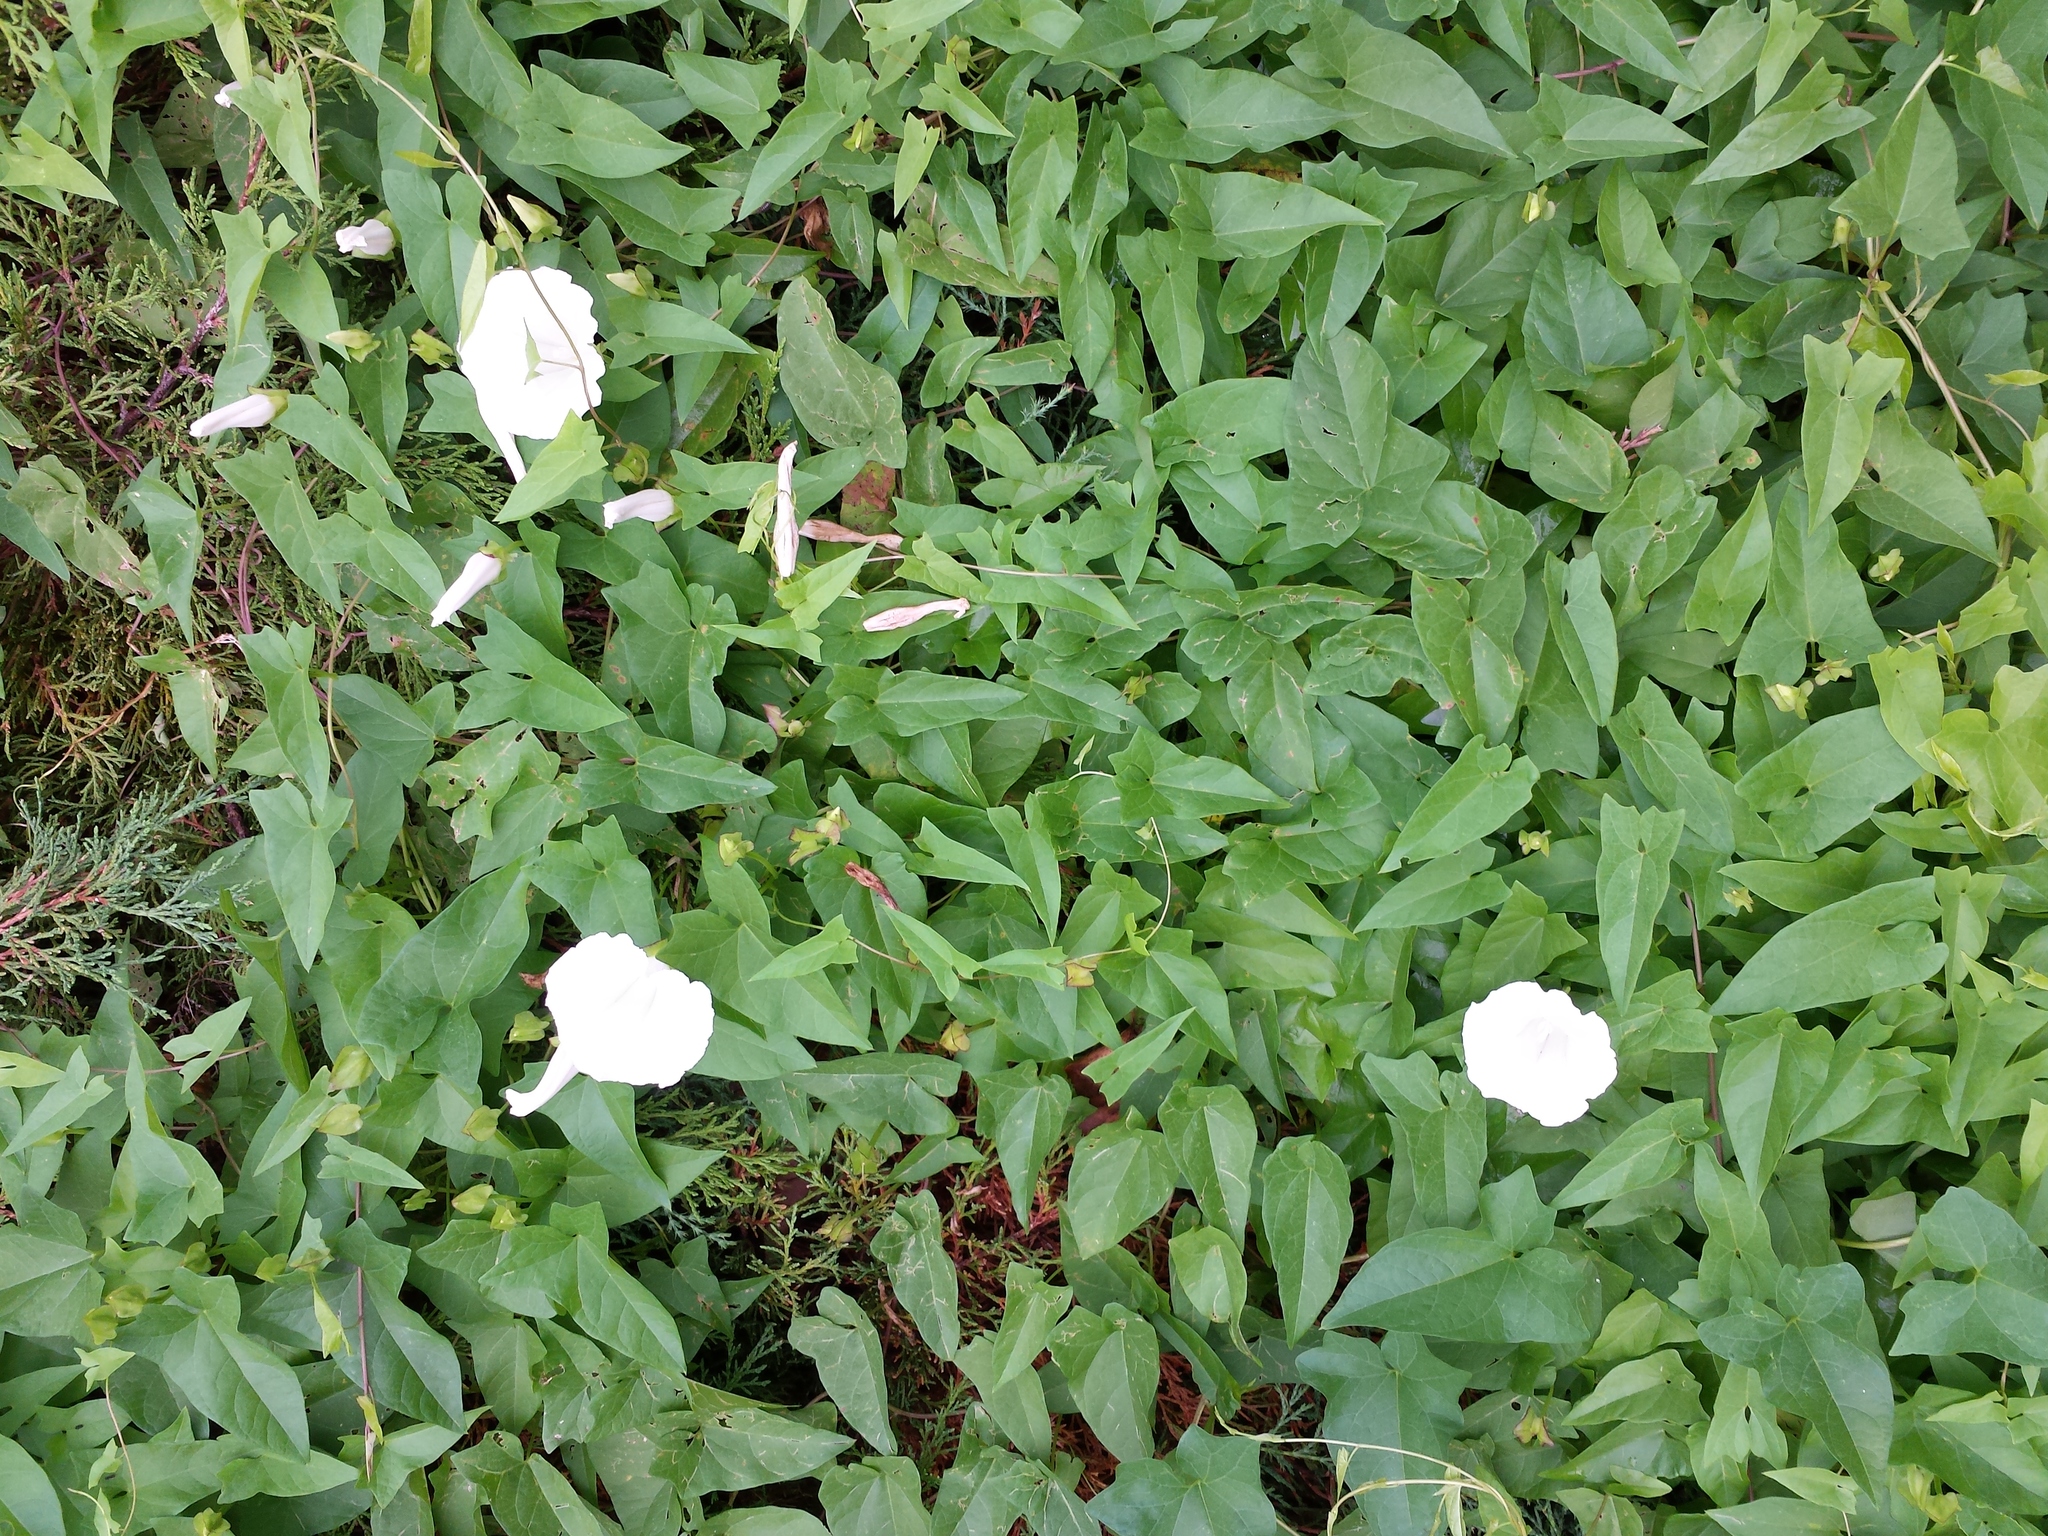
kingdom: Plantae
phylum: Tracheophyta
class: Magnoliopsida
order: Solanales
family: Convolvulaceae
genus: Calystegia
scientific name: Calystegia sepium
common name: Hedge bindweed
